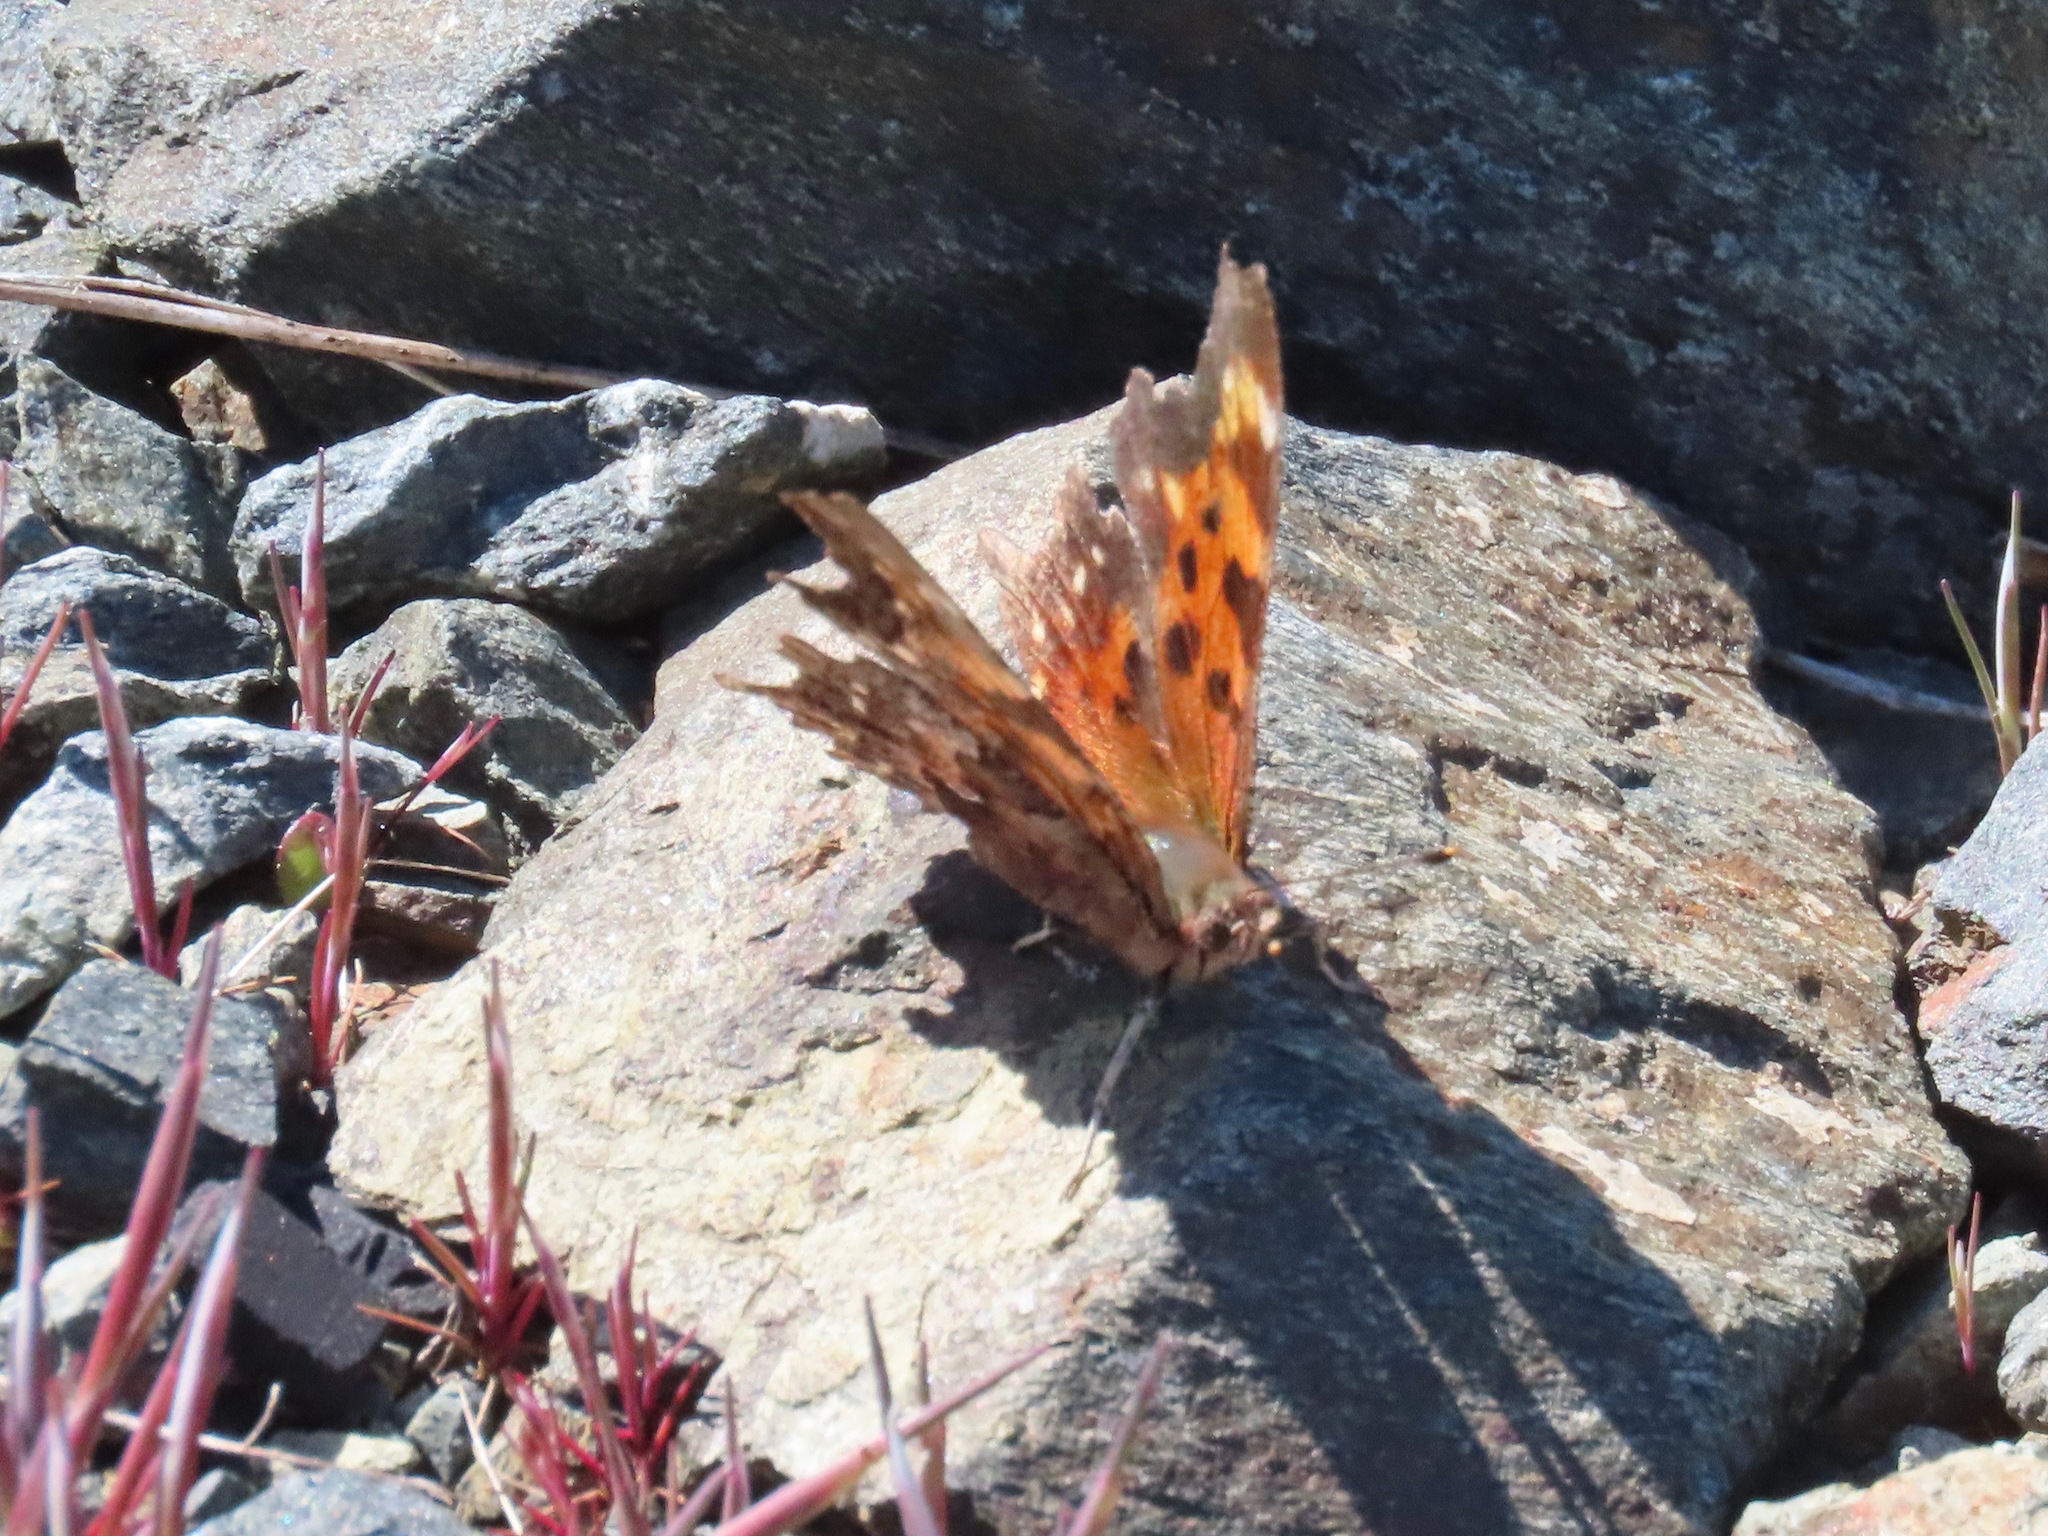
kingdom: Animalia
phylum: Arthropoda
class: Insecta
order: Lepidoptera
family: Nymphalidae
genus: Polygonia
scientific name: Polygonia faunus
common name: Green comma
